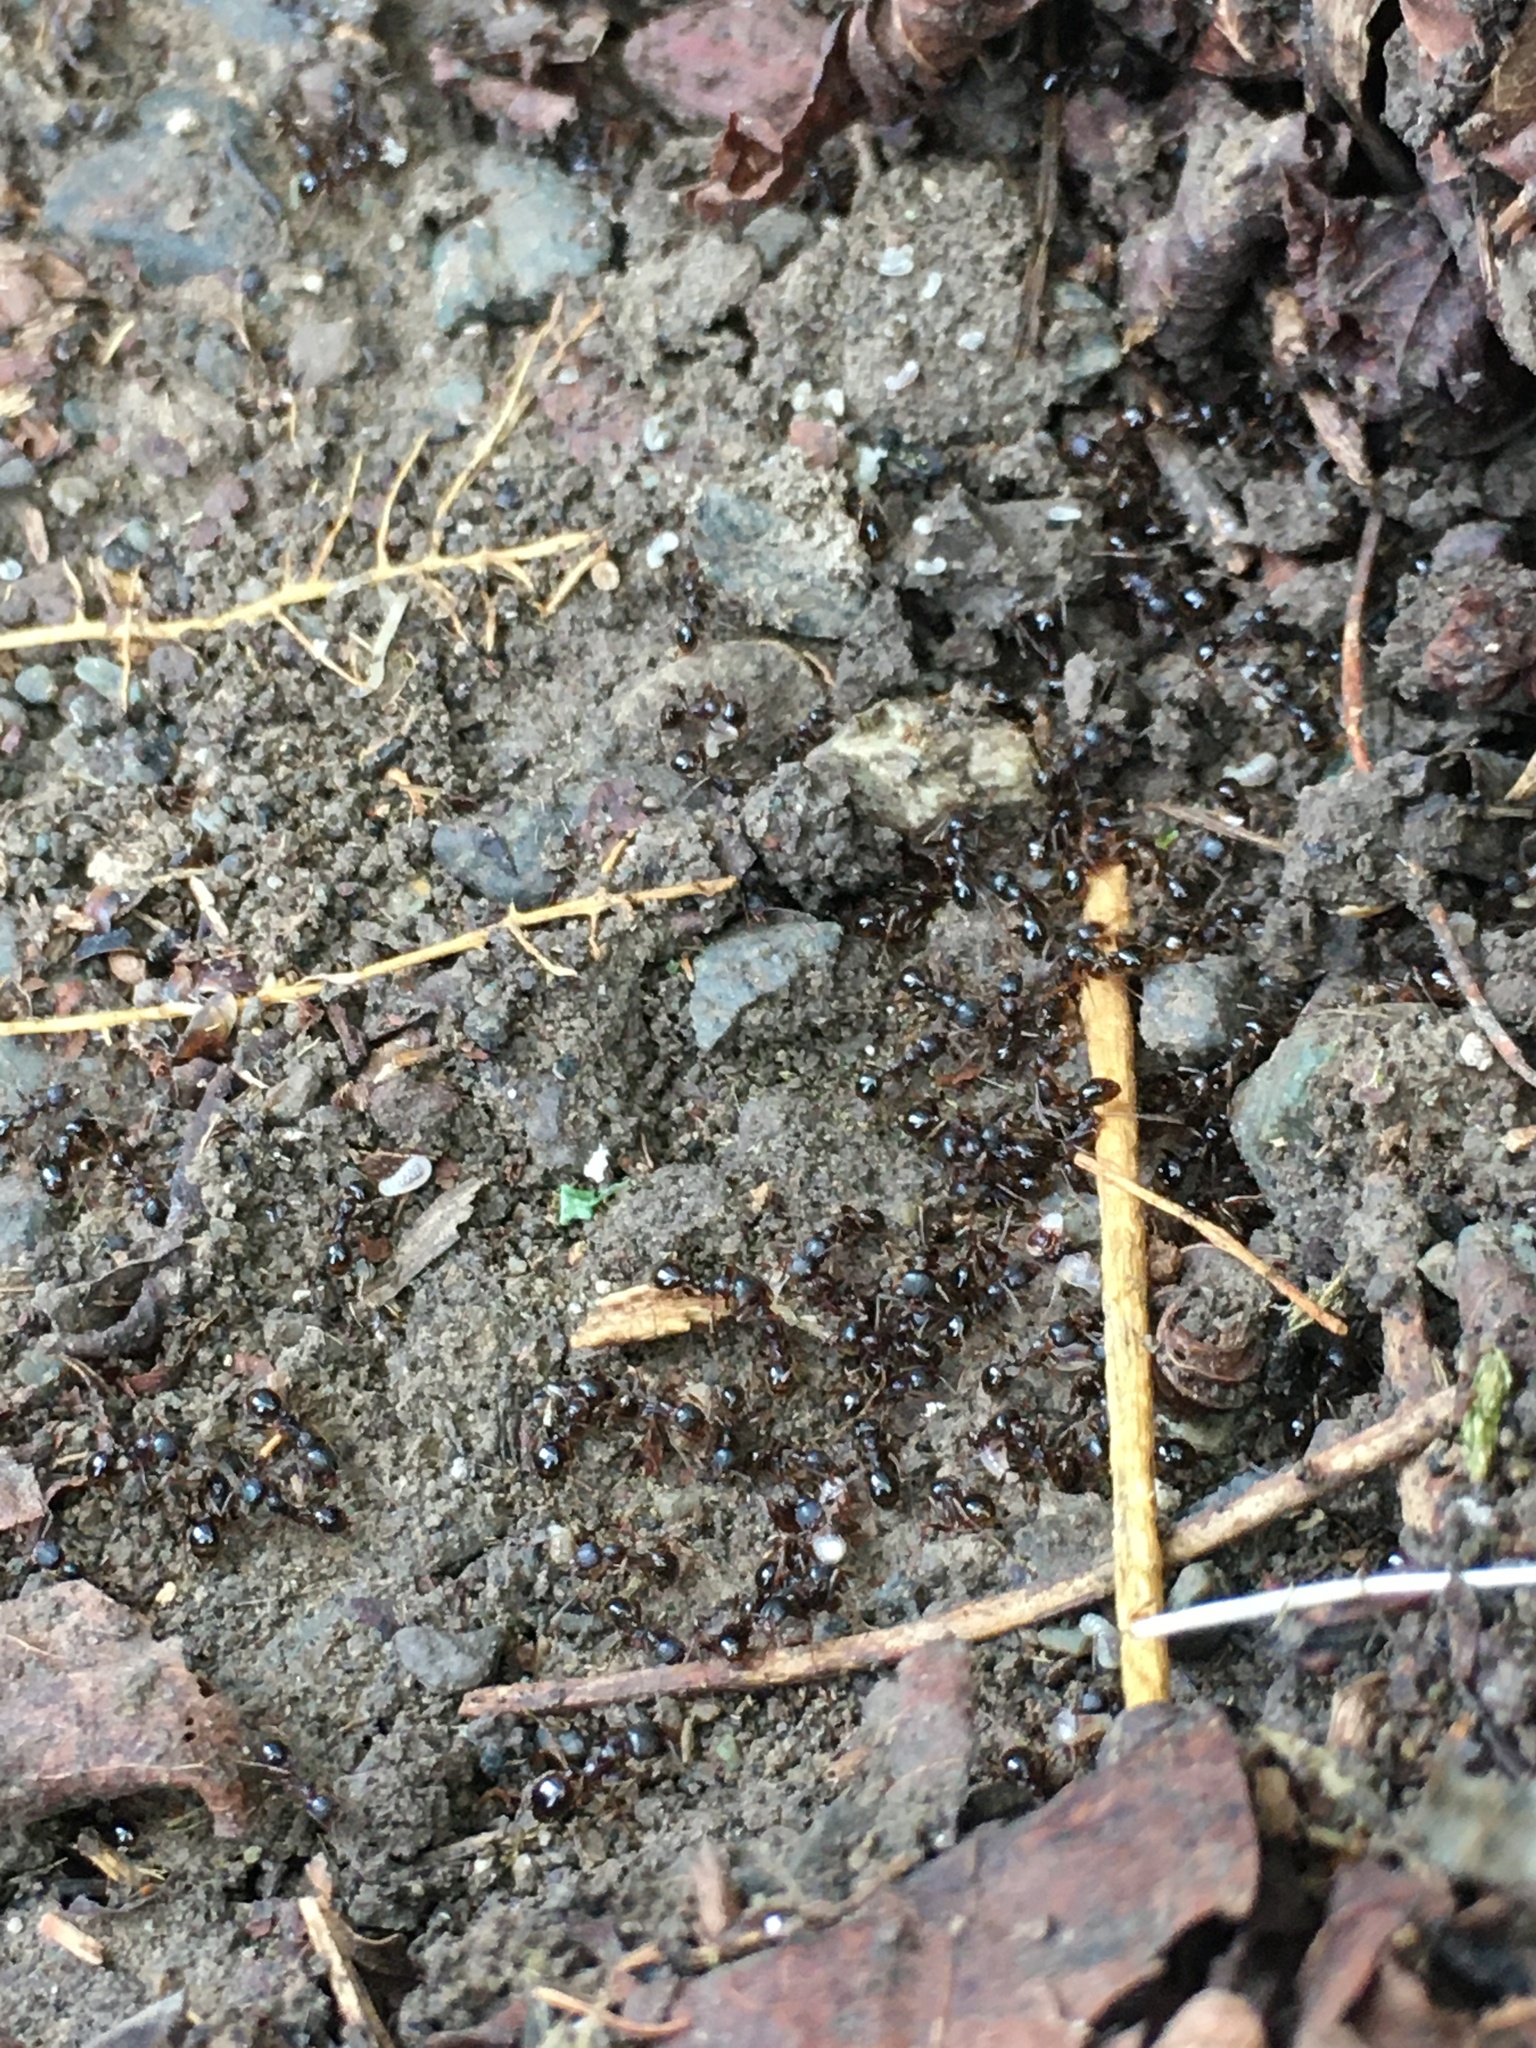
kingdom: Animalia
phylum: Arthropoda
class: Insecta
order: Hymenoptera
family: Formicidae
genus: Aphaenogaster
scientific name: Aphaenogaster occidentalis
